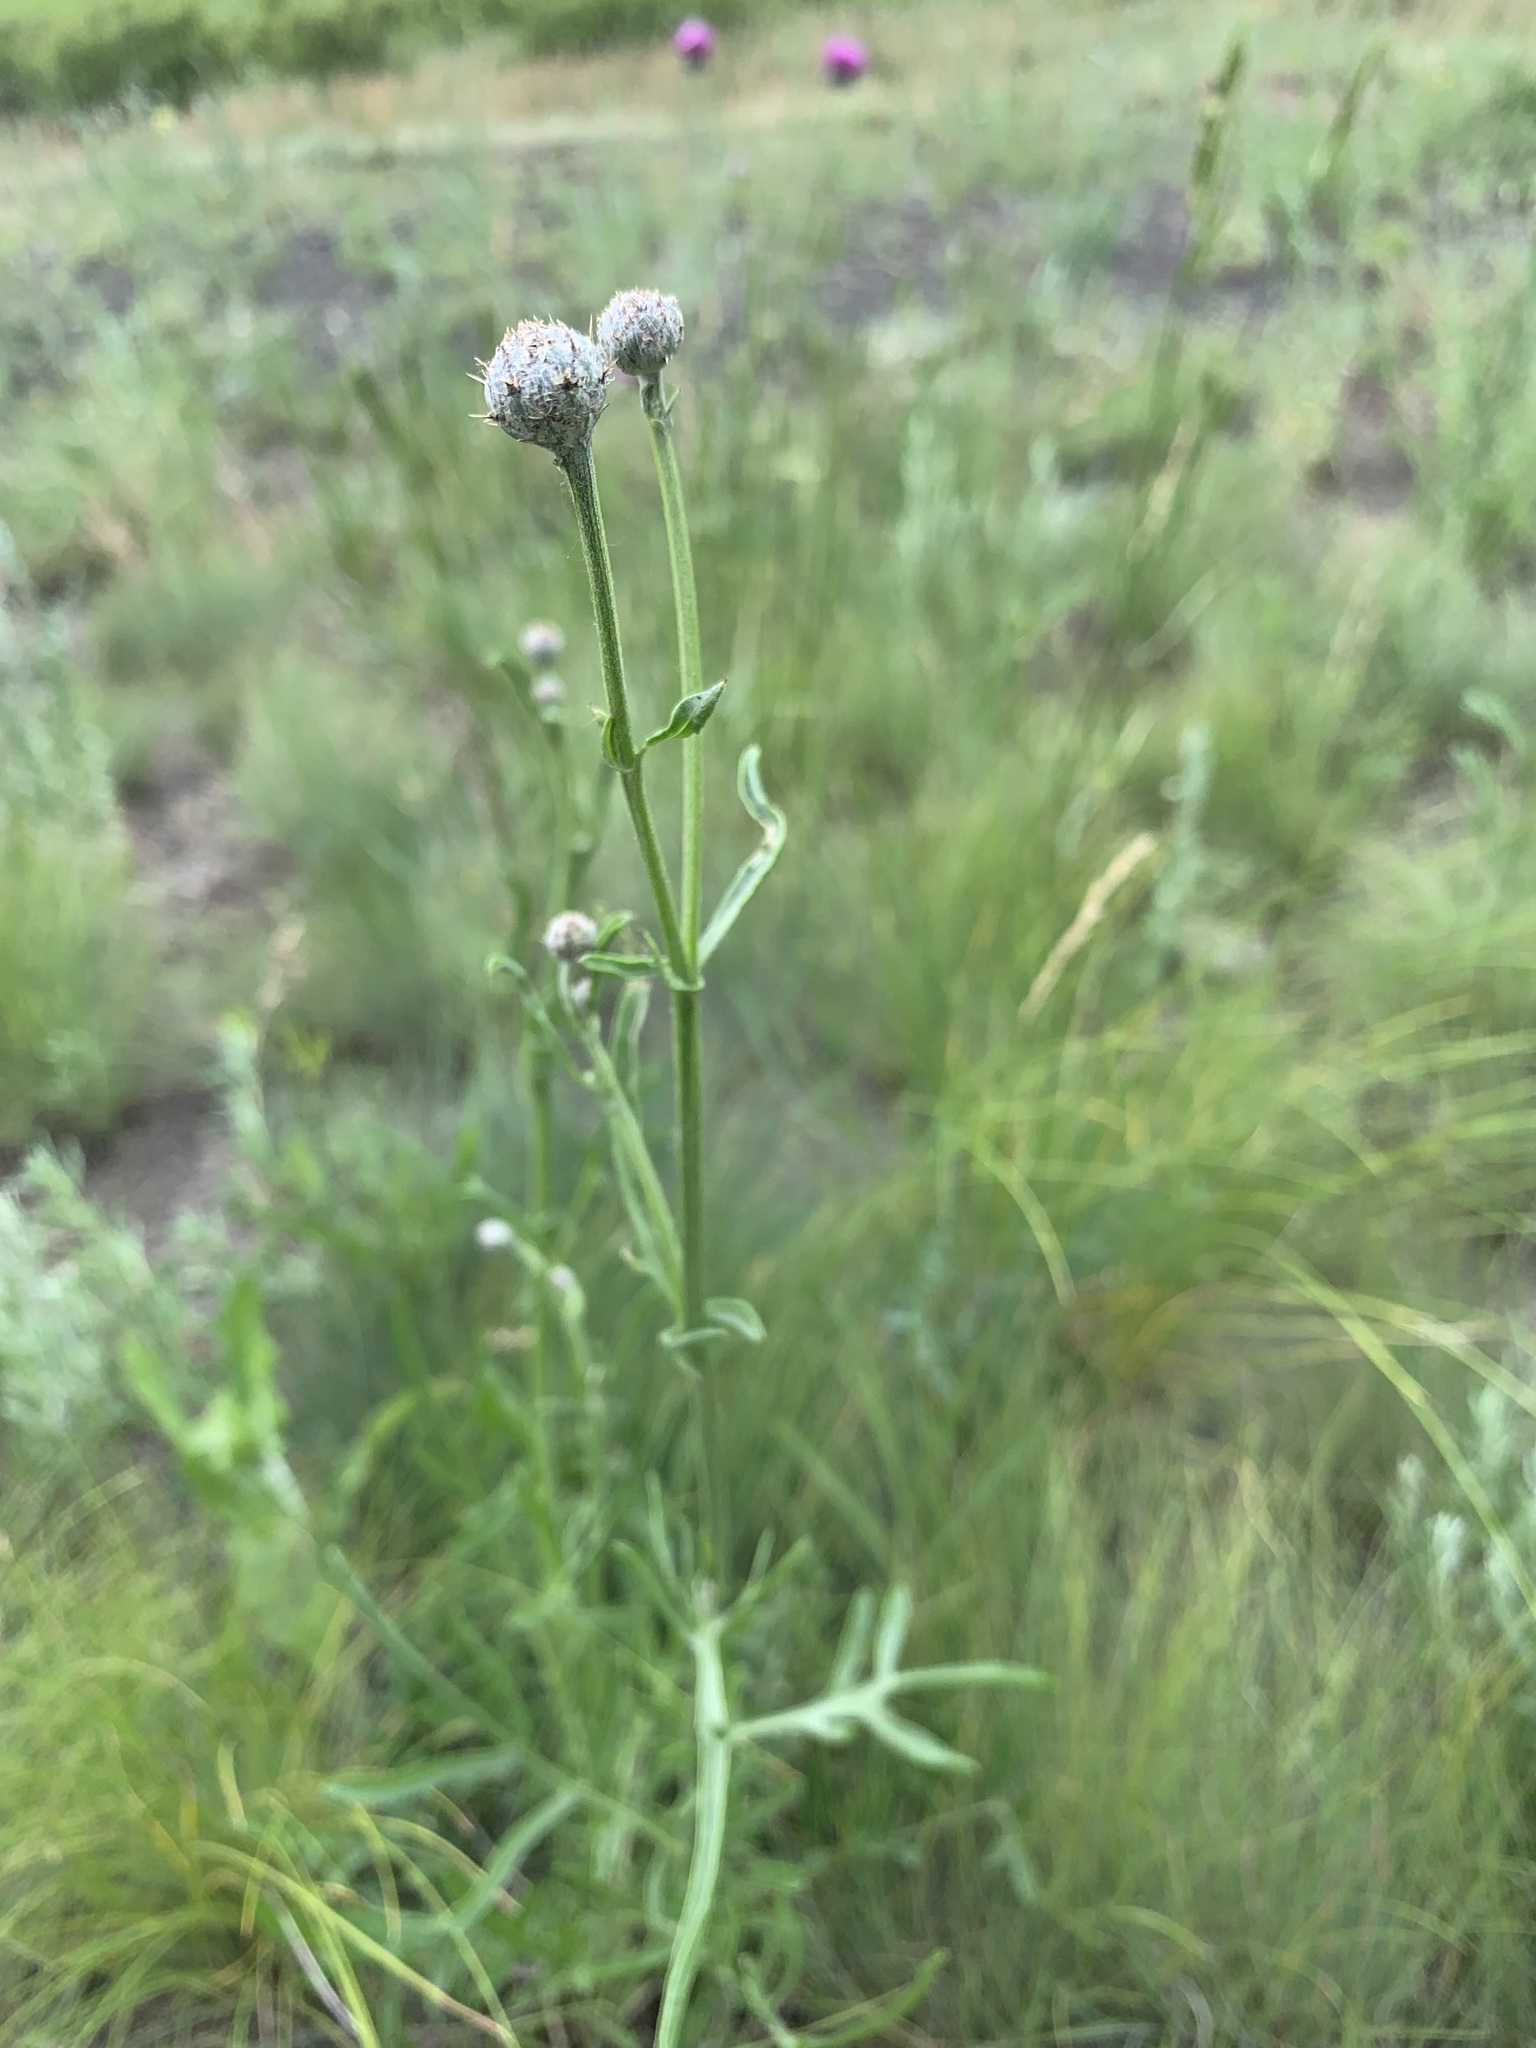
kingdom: Plantae
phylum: Tracheophyta
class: Magnoliopsida
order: Asterales
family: Asteraceae
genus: Centaurea
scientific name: Centaurea apiculata
